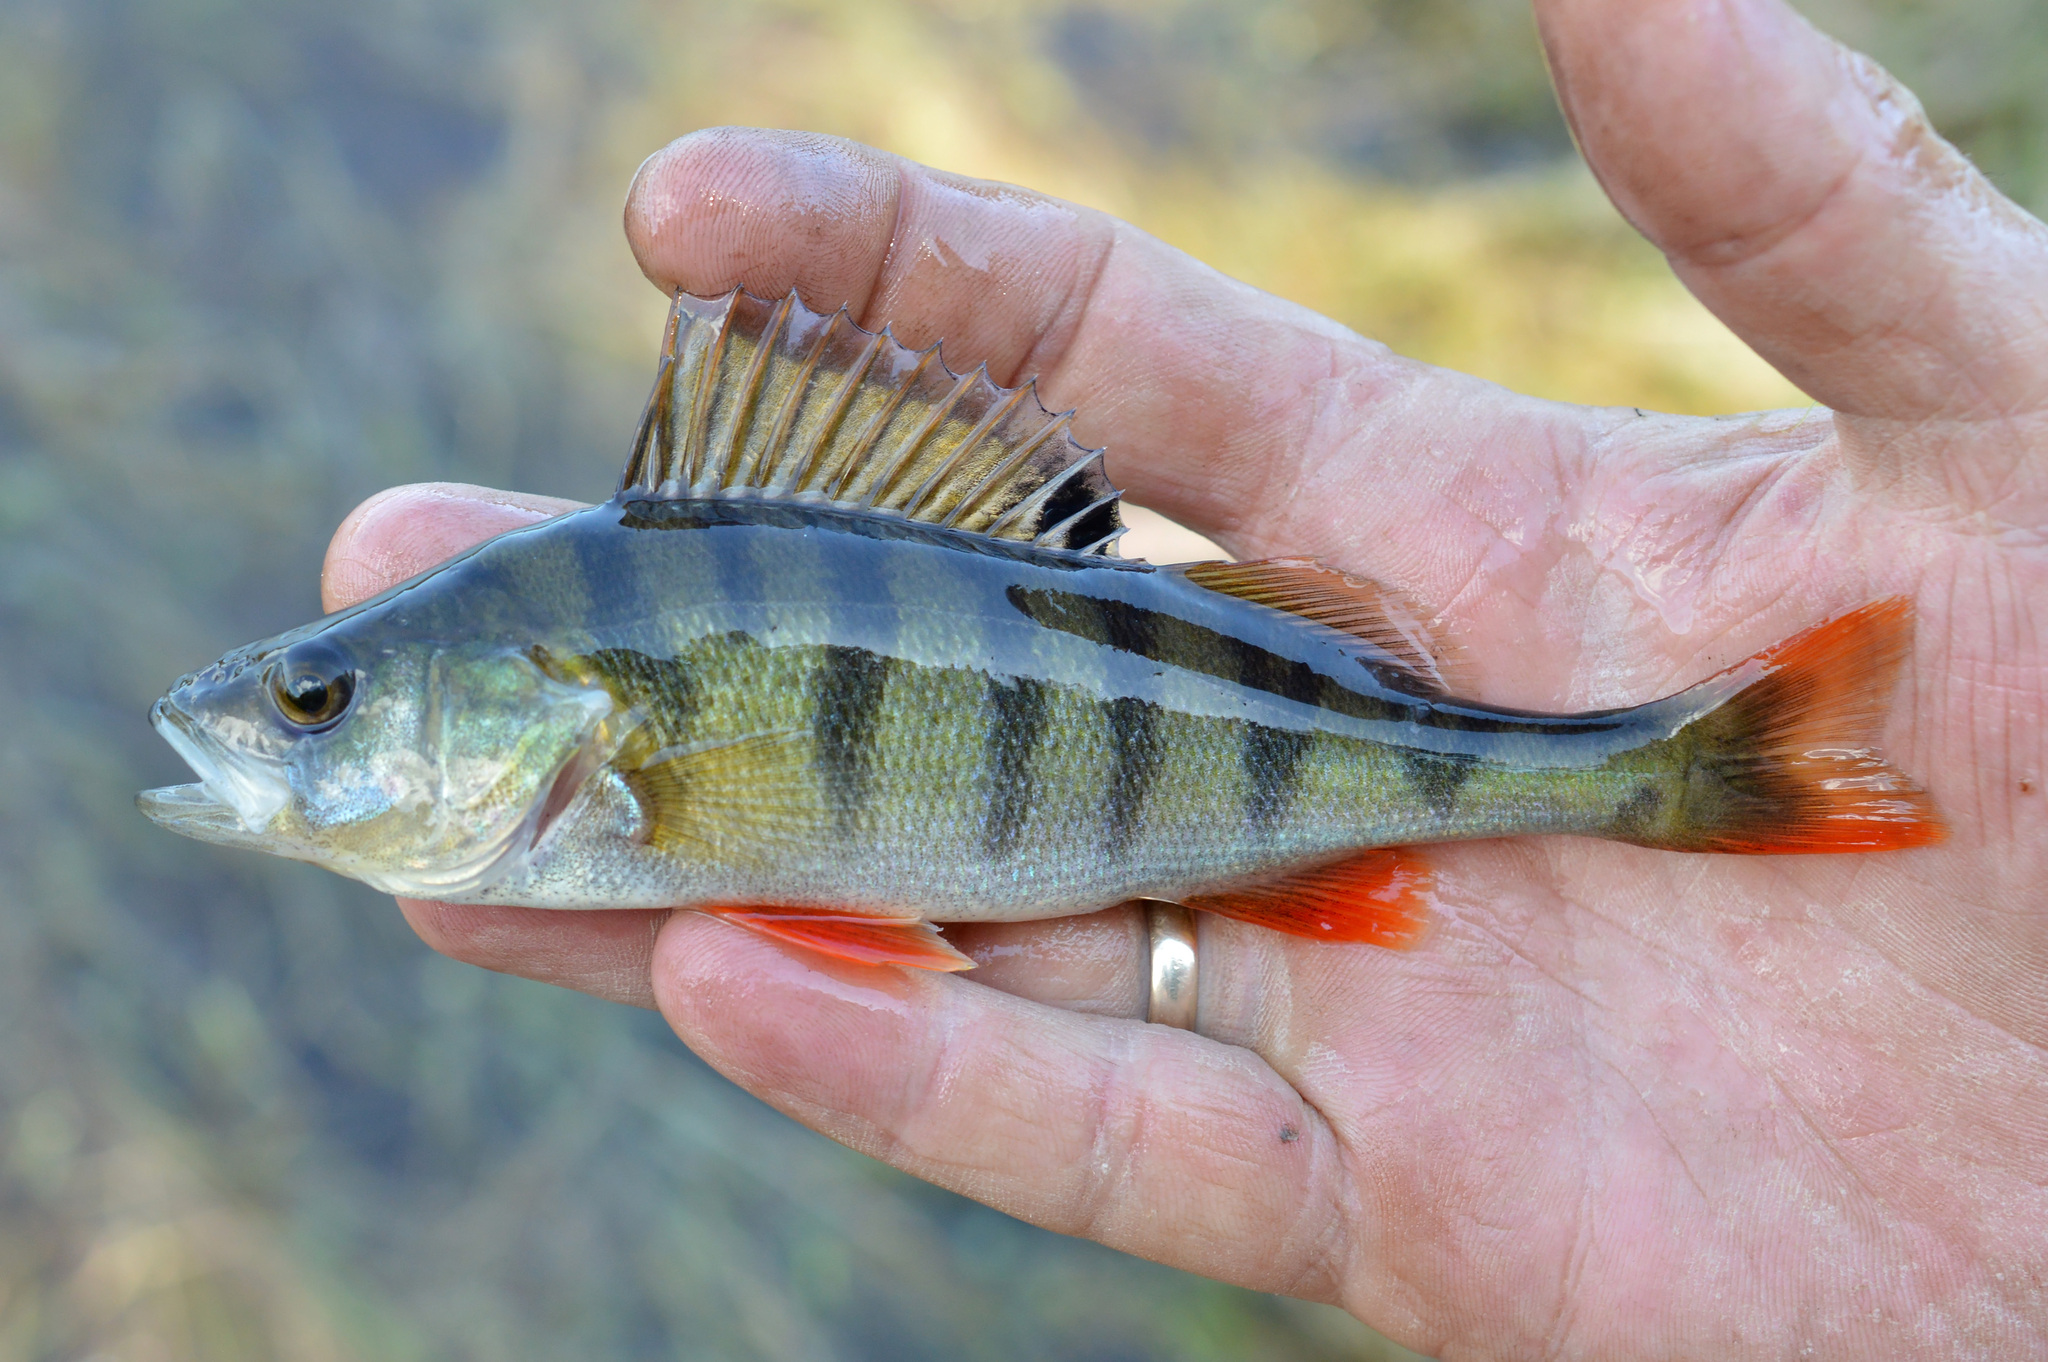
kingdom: Animalia
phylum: Chordata
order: Perciformes
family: Percidae
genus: Perca
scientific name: Perca fluviatilis
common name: Perch
